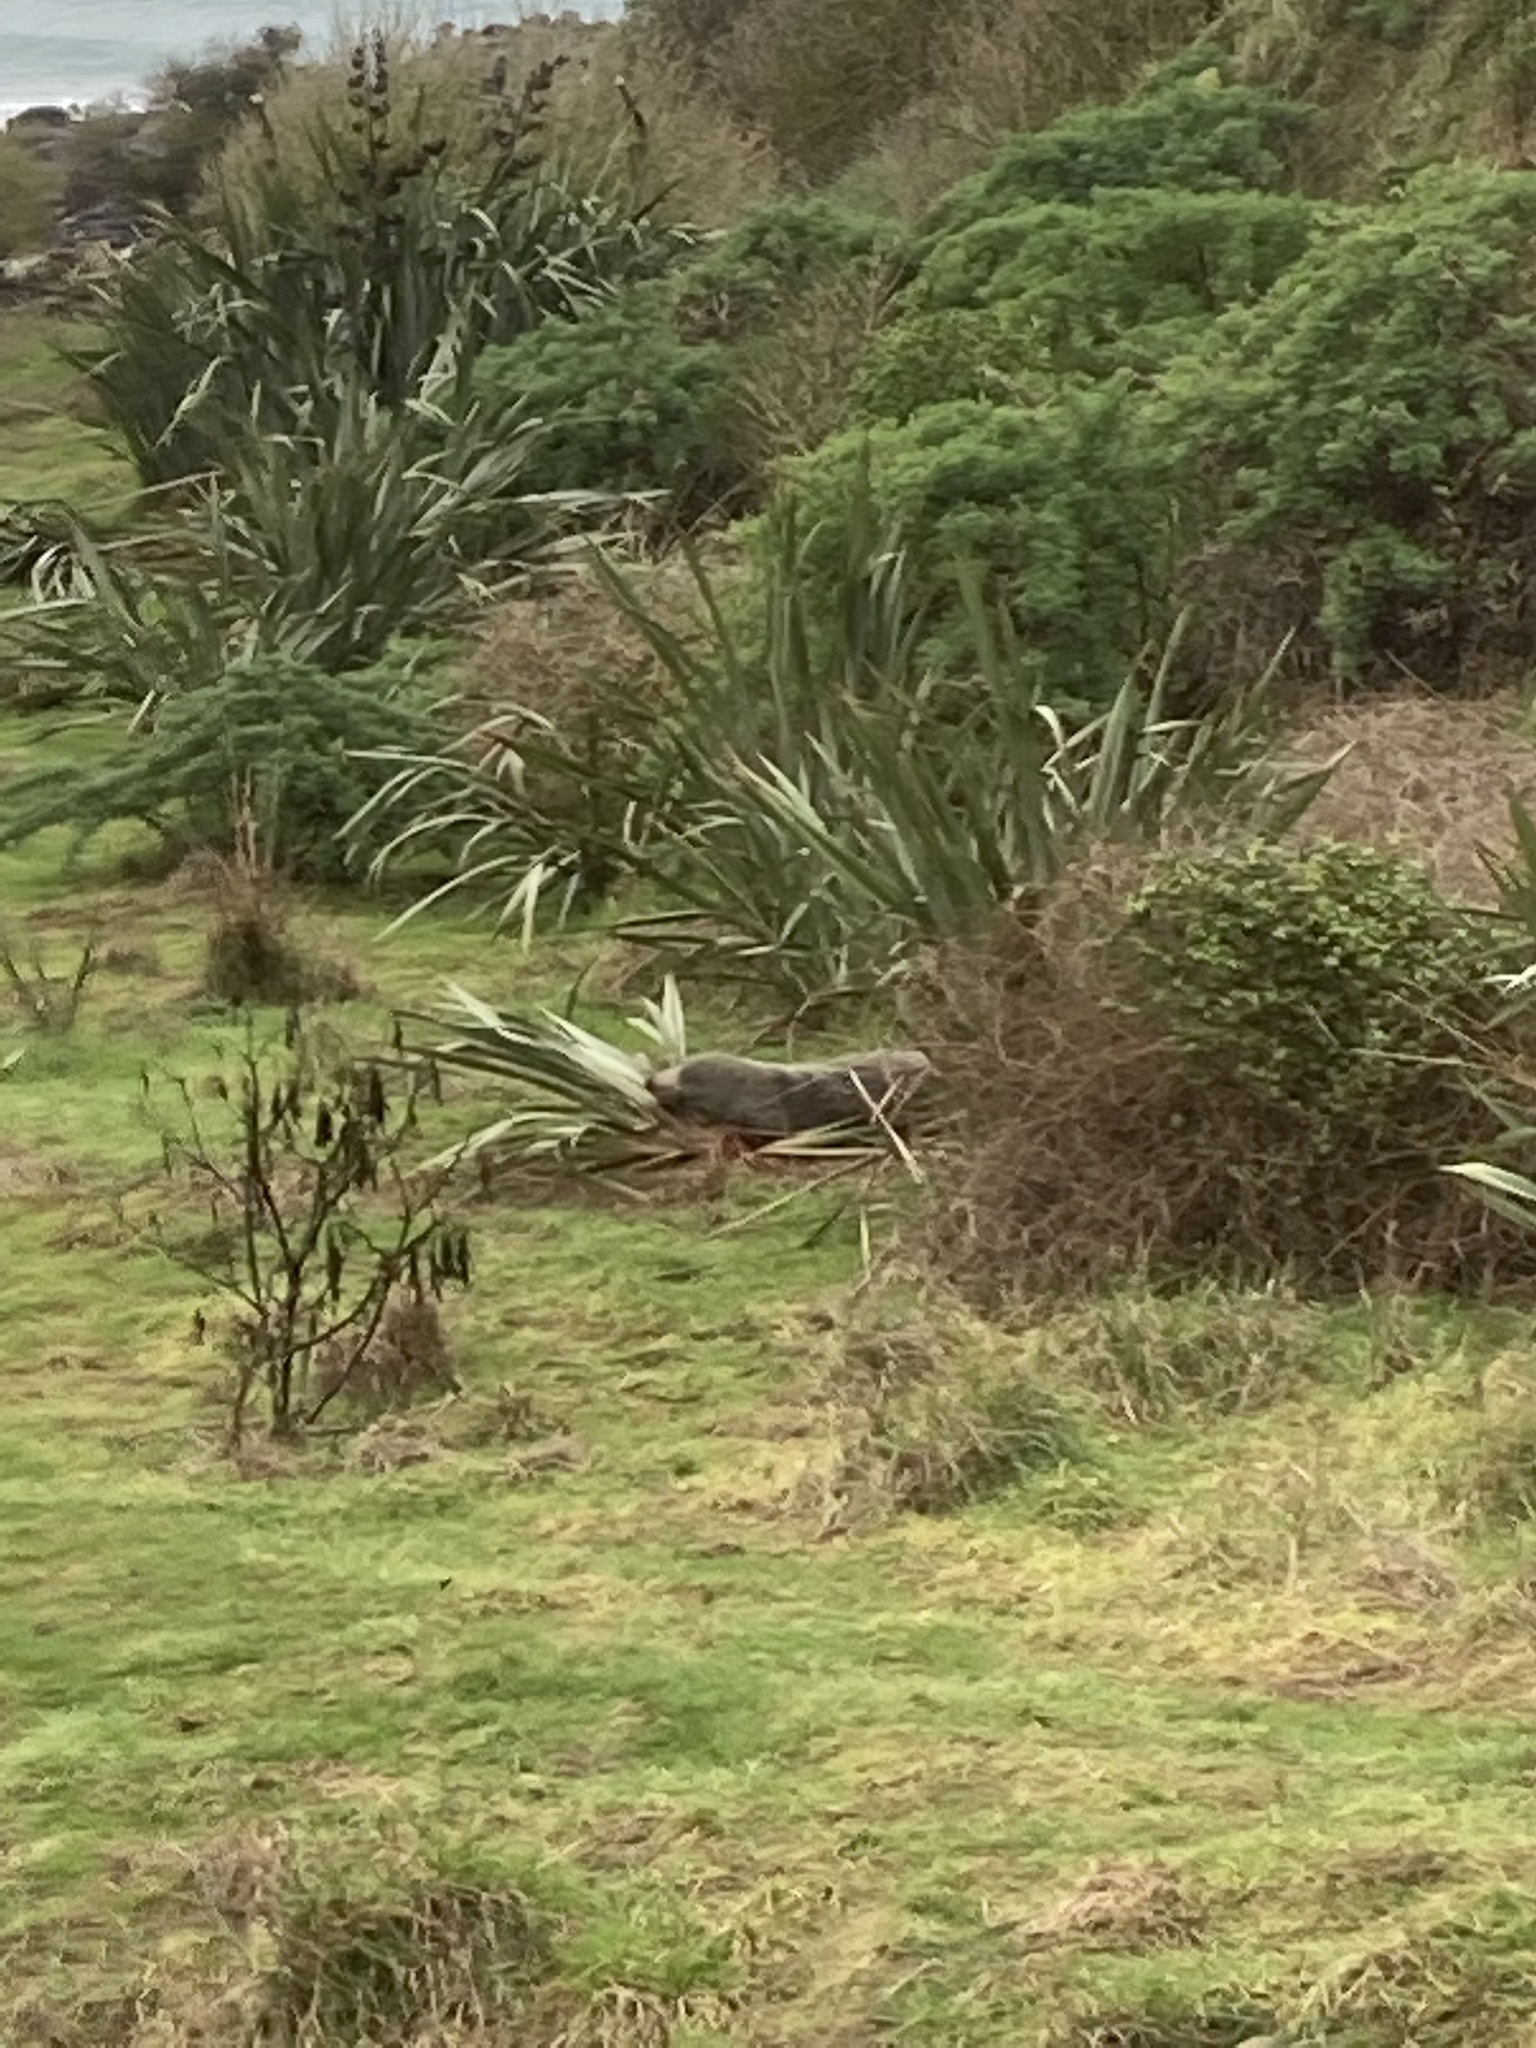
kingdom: Animalia
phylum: Chordata
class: Mammalia
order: Carnivora
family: Otariidae
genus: Arctocephalus
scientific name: Arctocephalus forsteri
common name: New zealand fur seal
